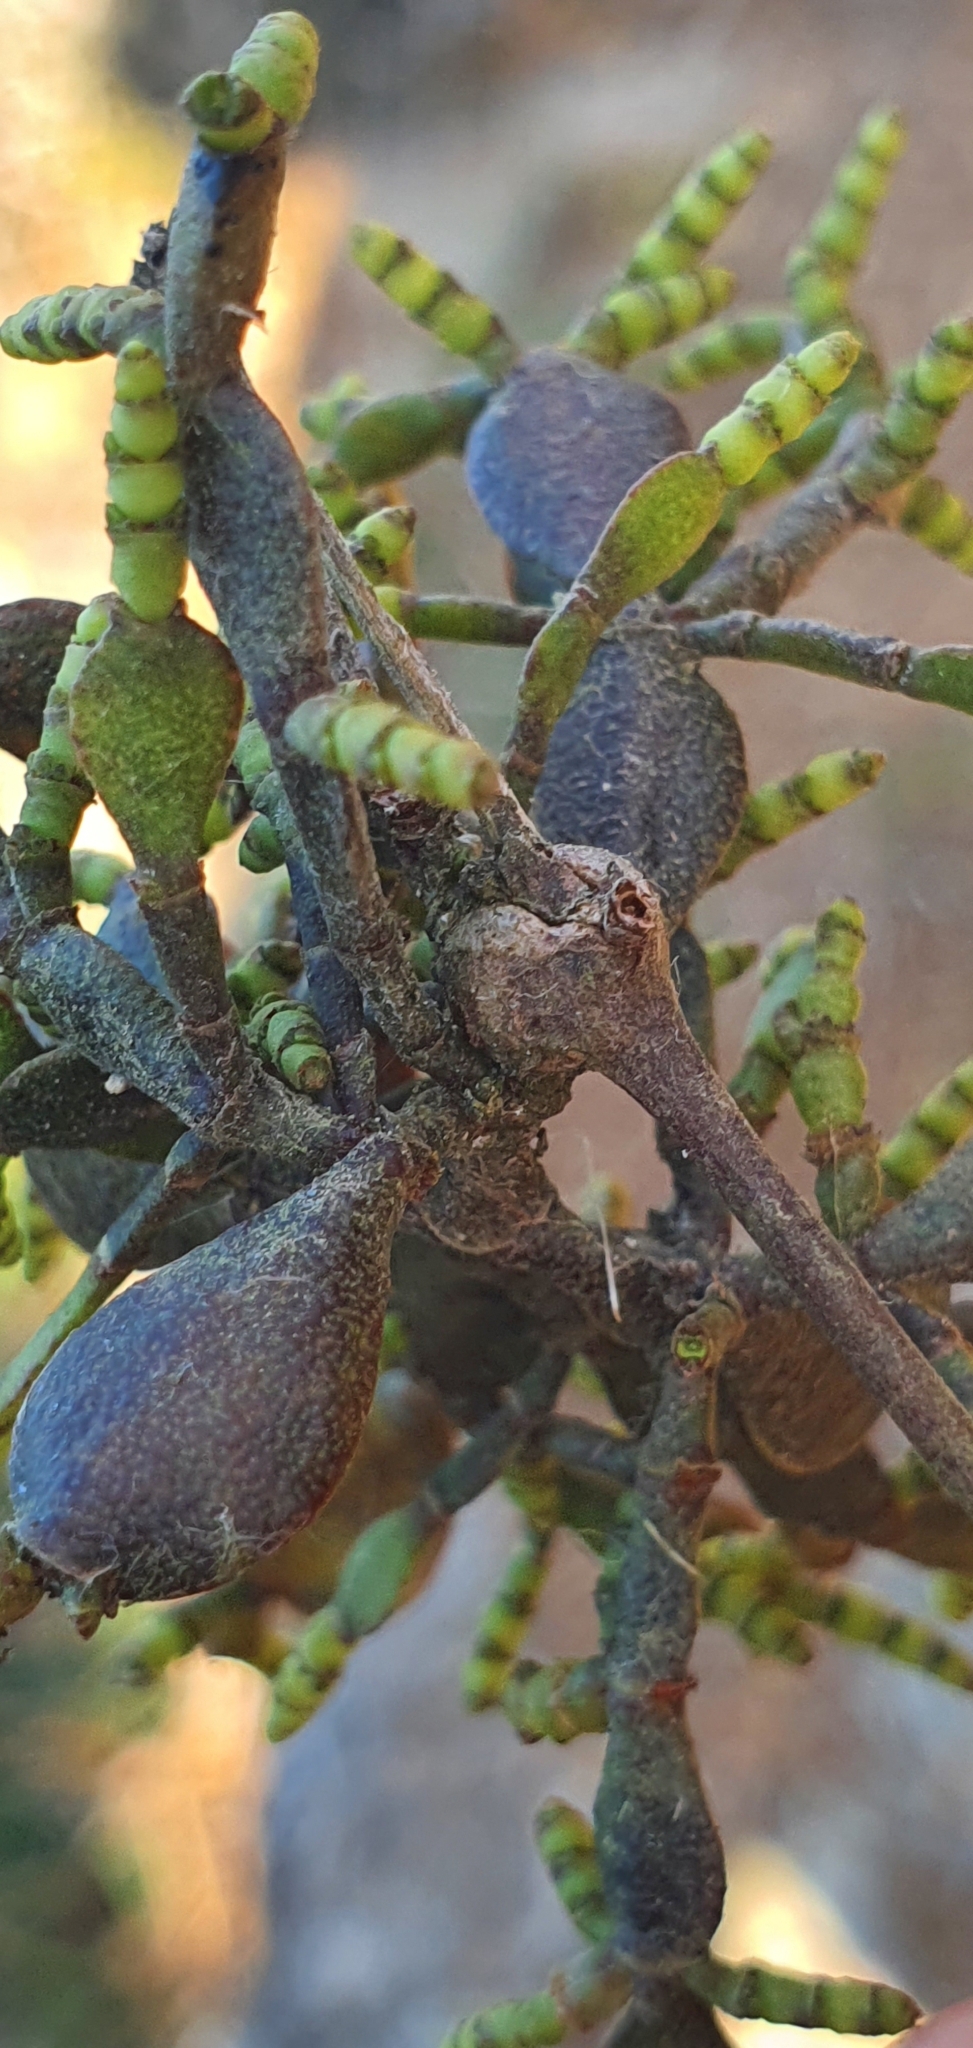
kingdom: Plantae
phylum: Tracheophyta
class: Magnoliopsida
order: Santalales
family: Viscaceae
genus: Korthalsella
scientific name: Korthalsella lindsayi
